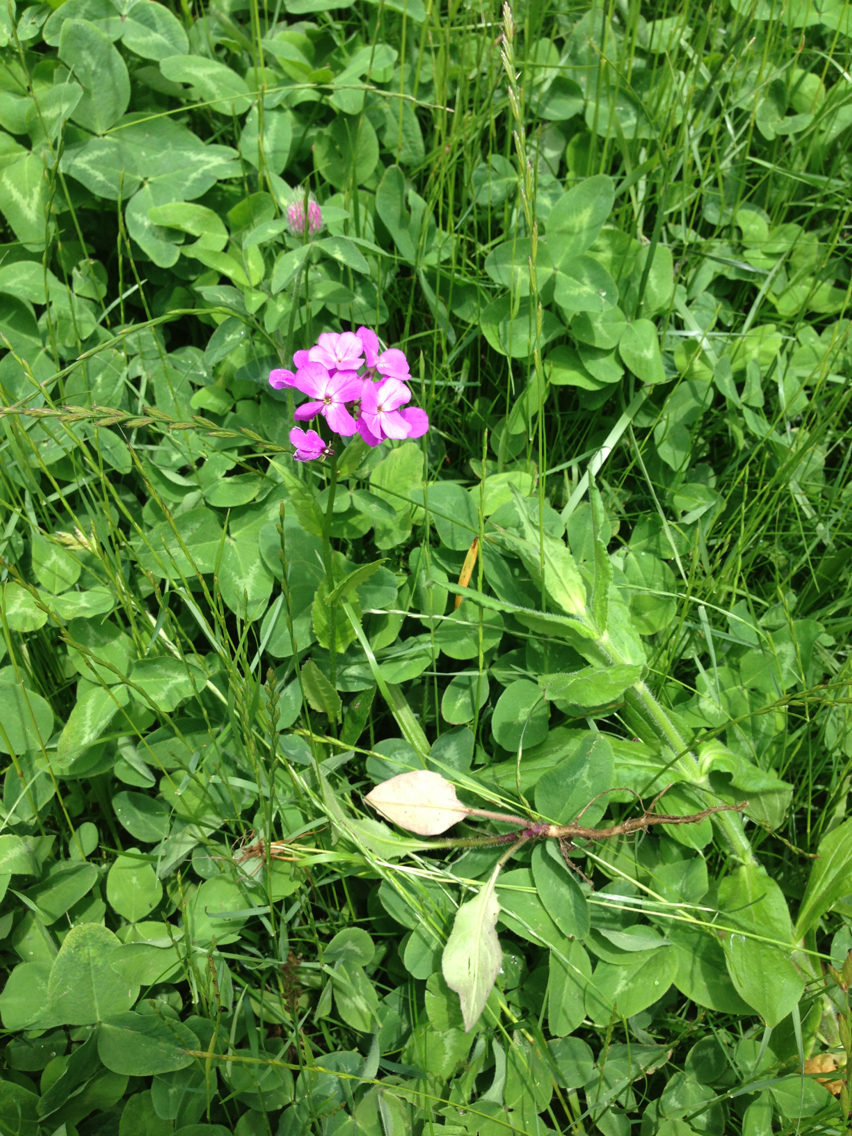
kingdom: Plantae
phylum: Tracheophyta
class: Magnoliopsida
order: Brassicales
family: Brassicaceae
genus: Hesperis
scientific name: Hesperis matronalis
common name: Dame's-violet
